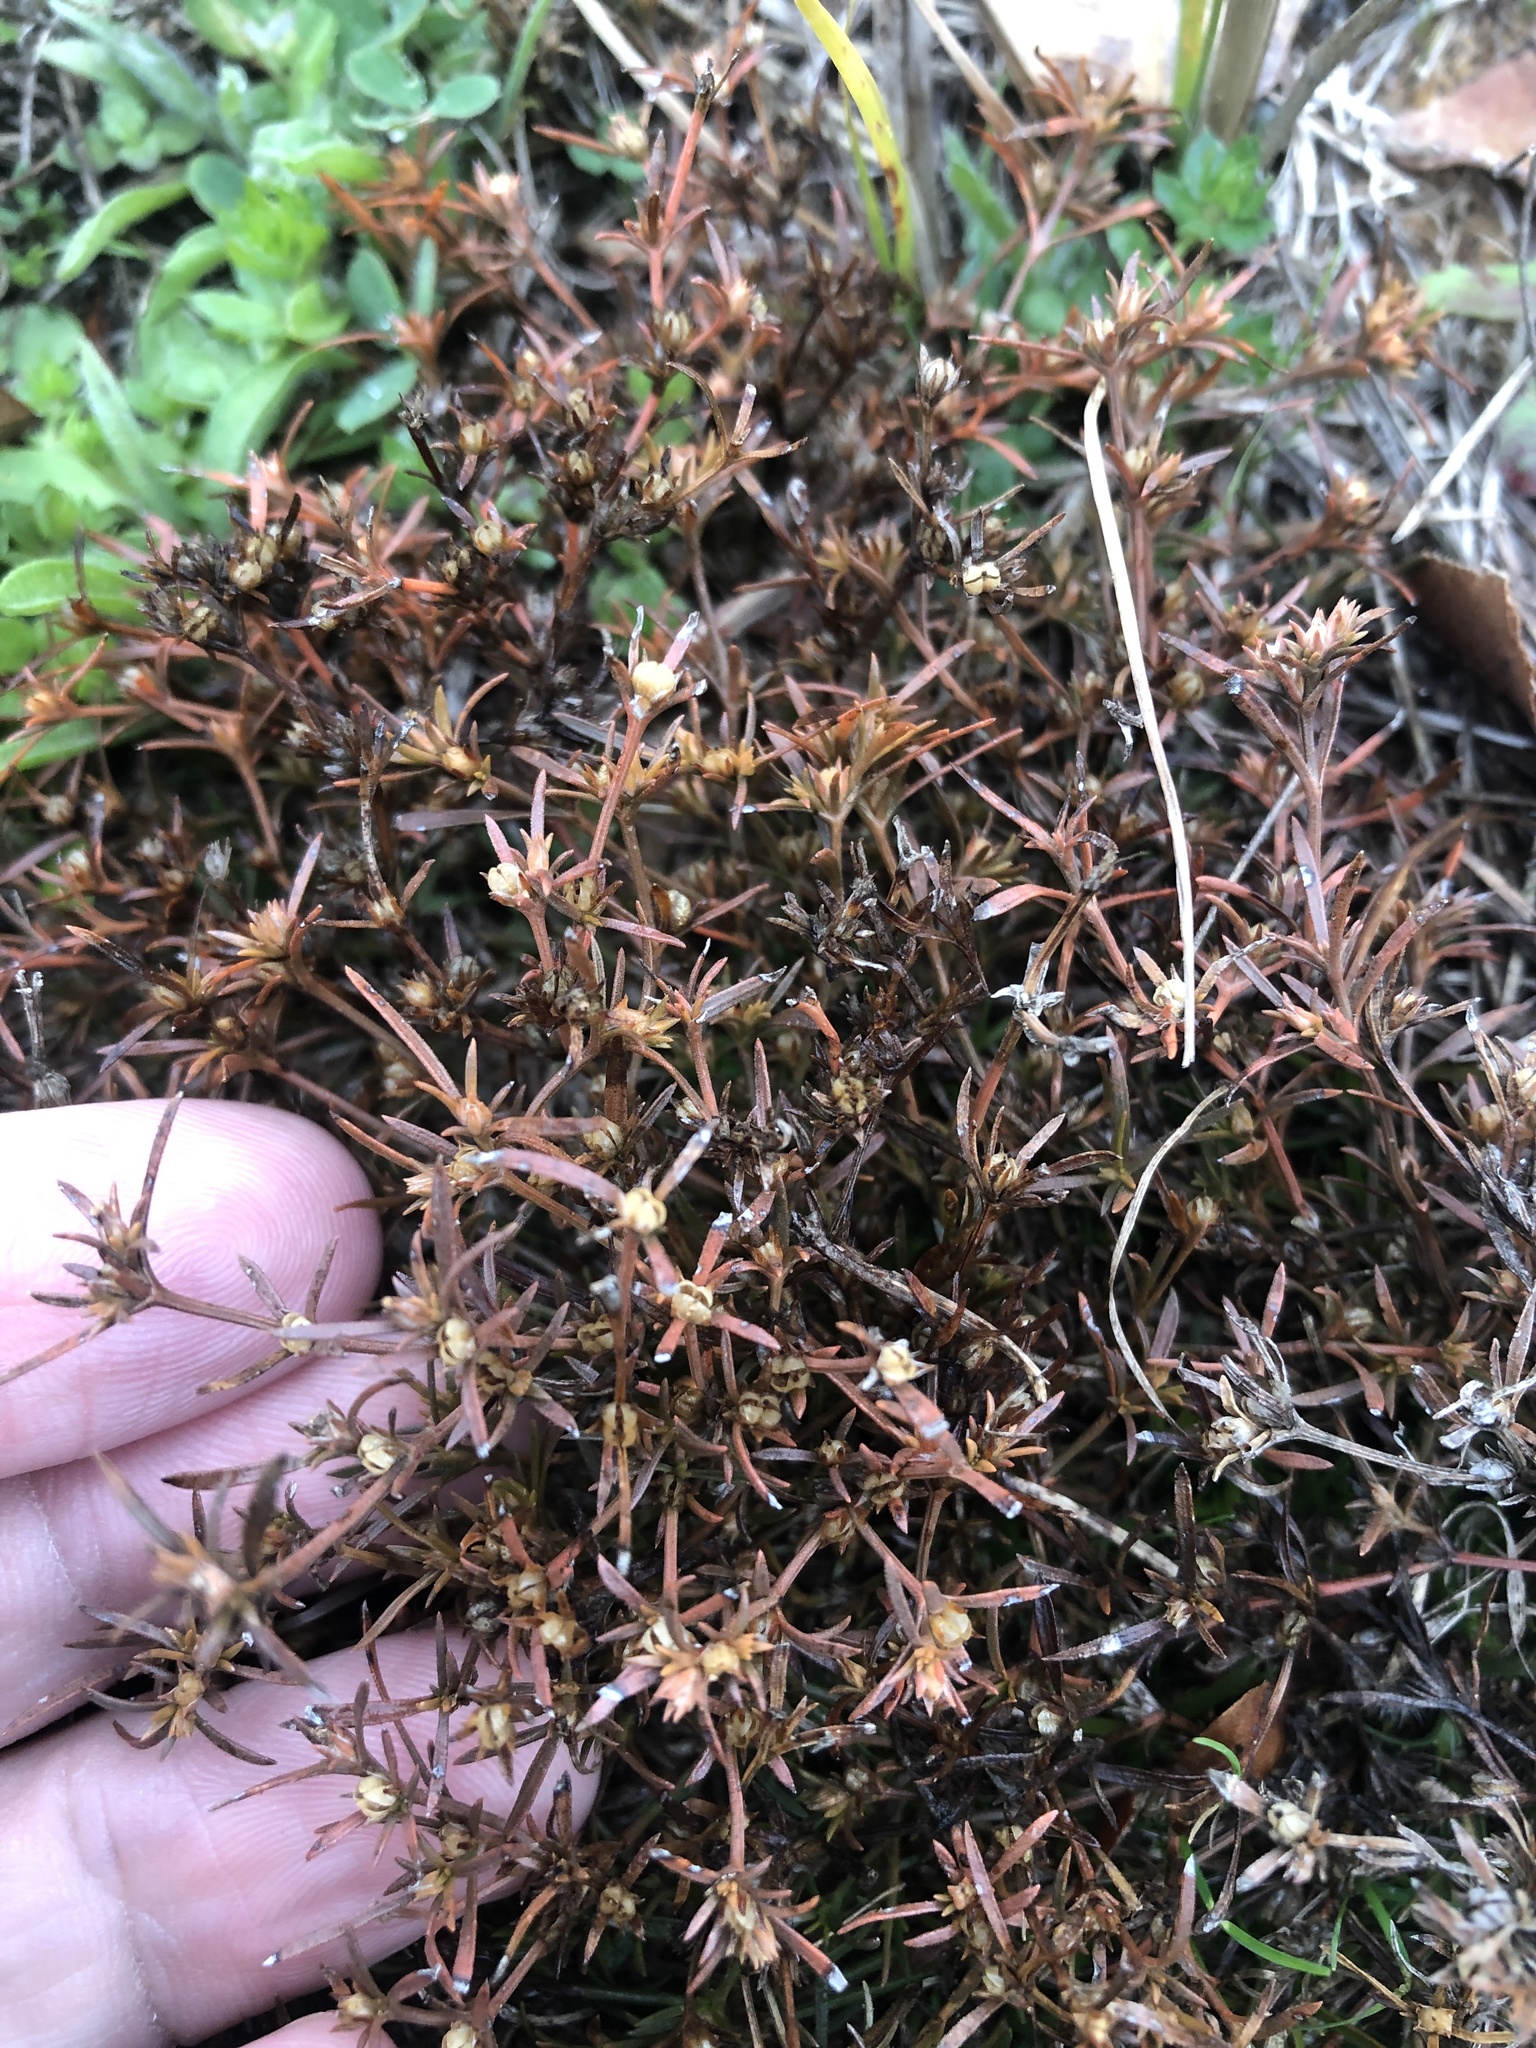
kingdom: Plantae
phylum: Tracheophyta
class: Magnoliopsida
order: Lamiales
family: Tetrachondraceae
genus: Polypremum
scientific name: Polypremum procumbens
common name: Juniper-leaf
